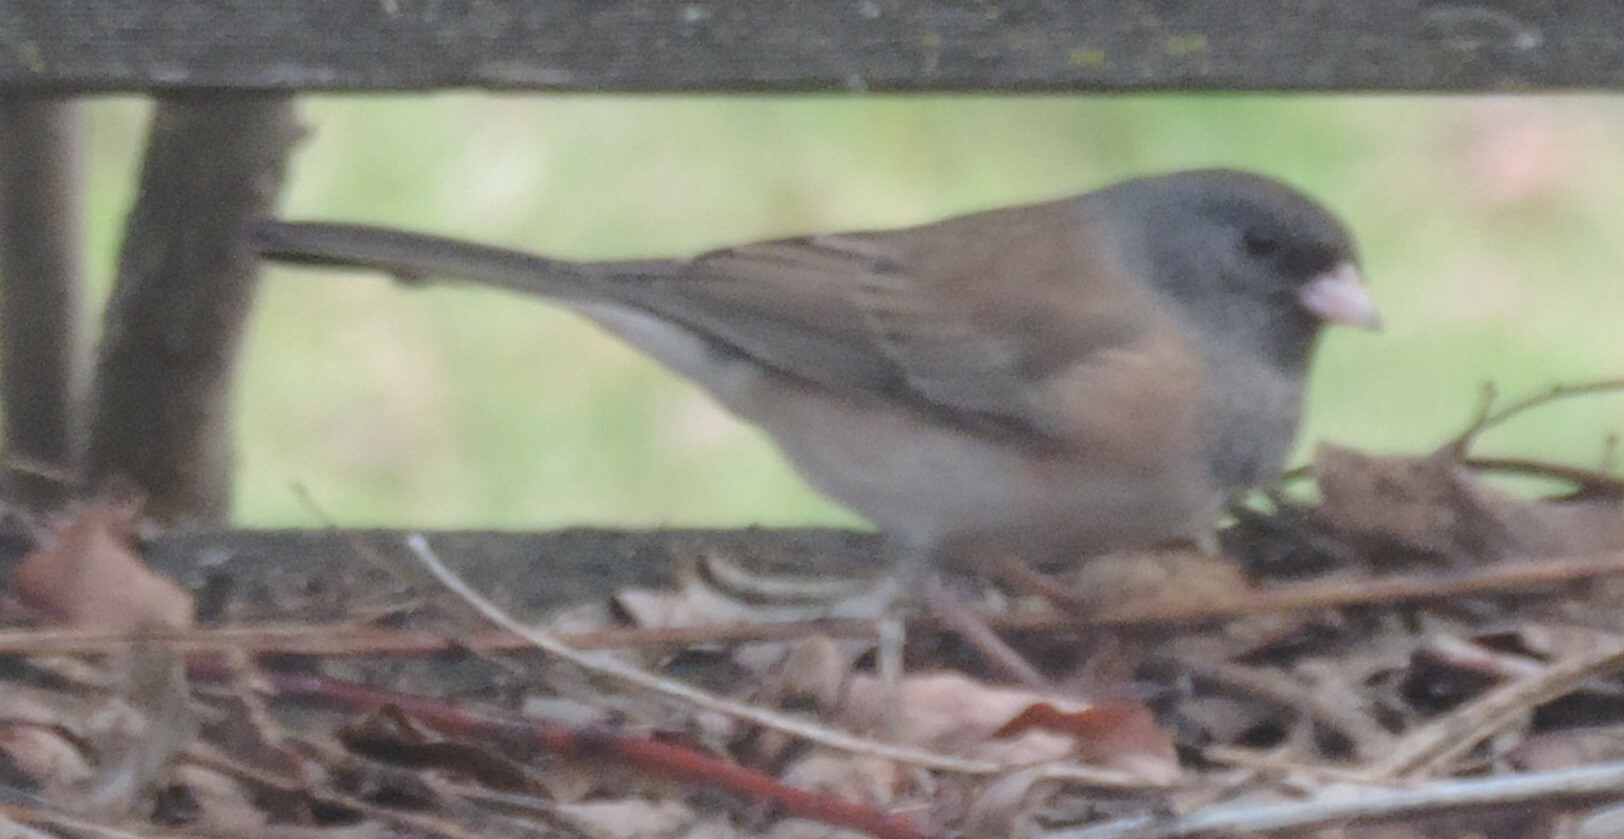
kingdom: Animalia
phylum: Chordata
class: Aves
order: Passeriformes
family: Passerellidae
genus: Junco
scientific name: Junco hyemalis
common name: Dark-eyed junco
